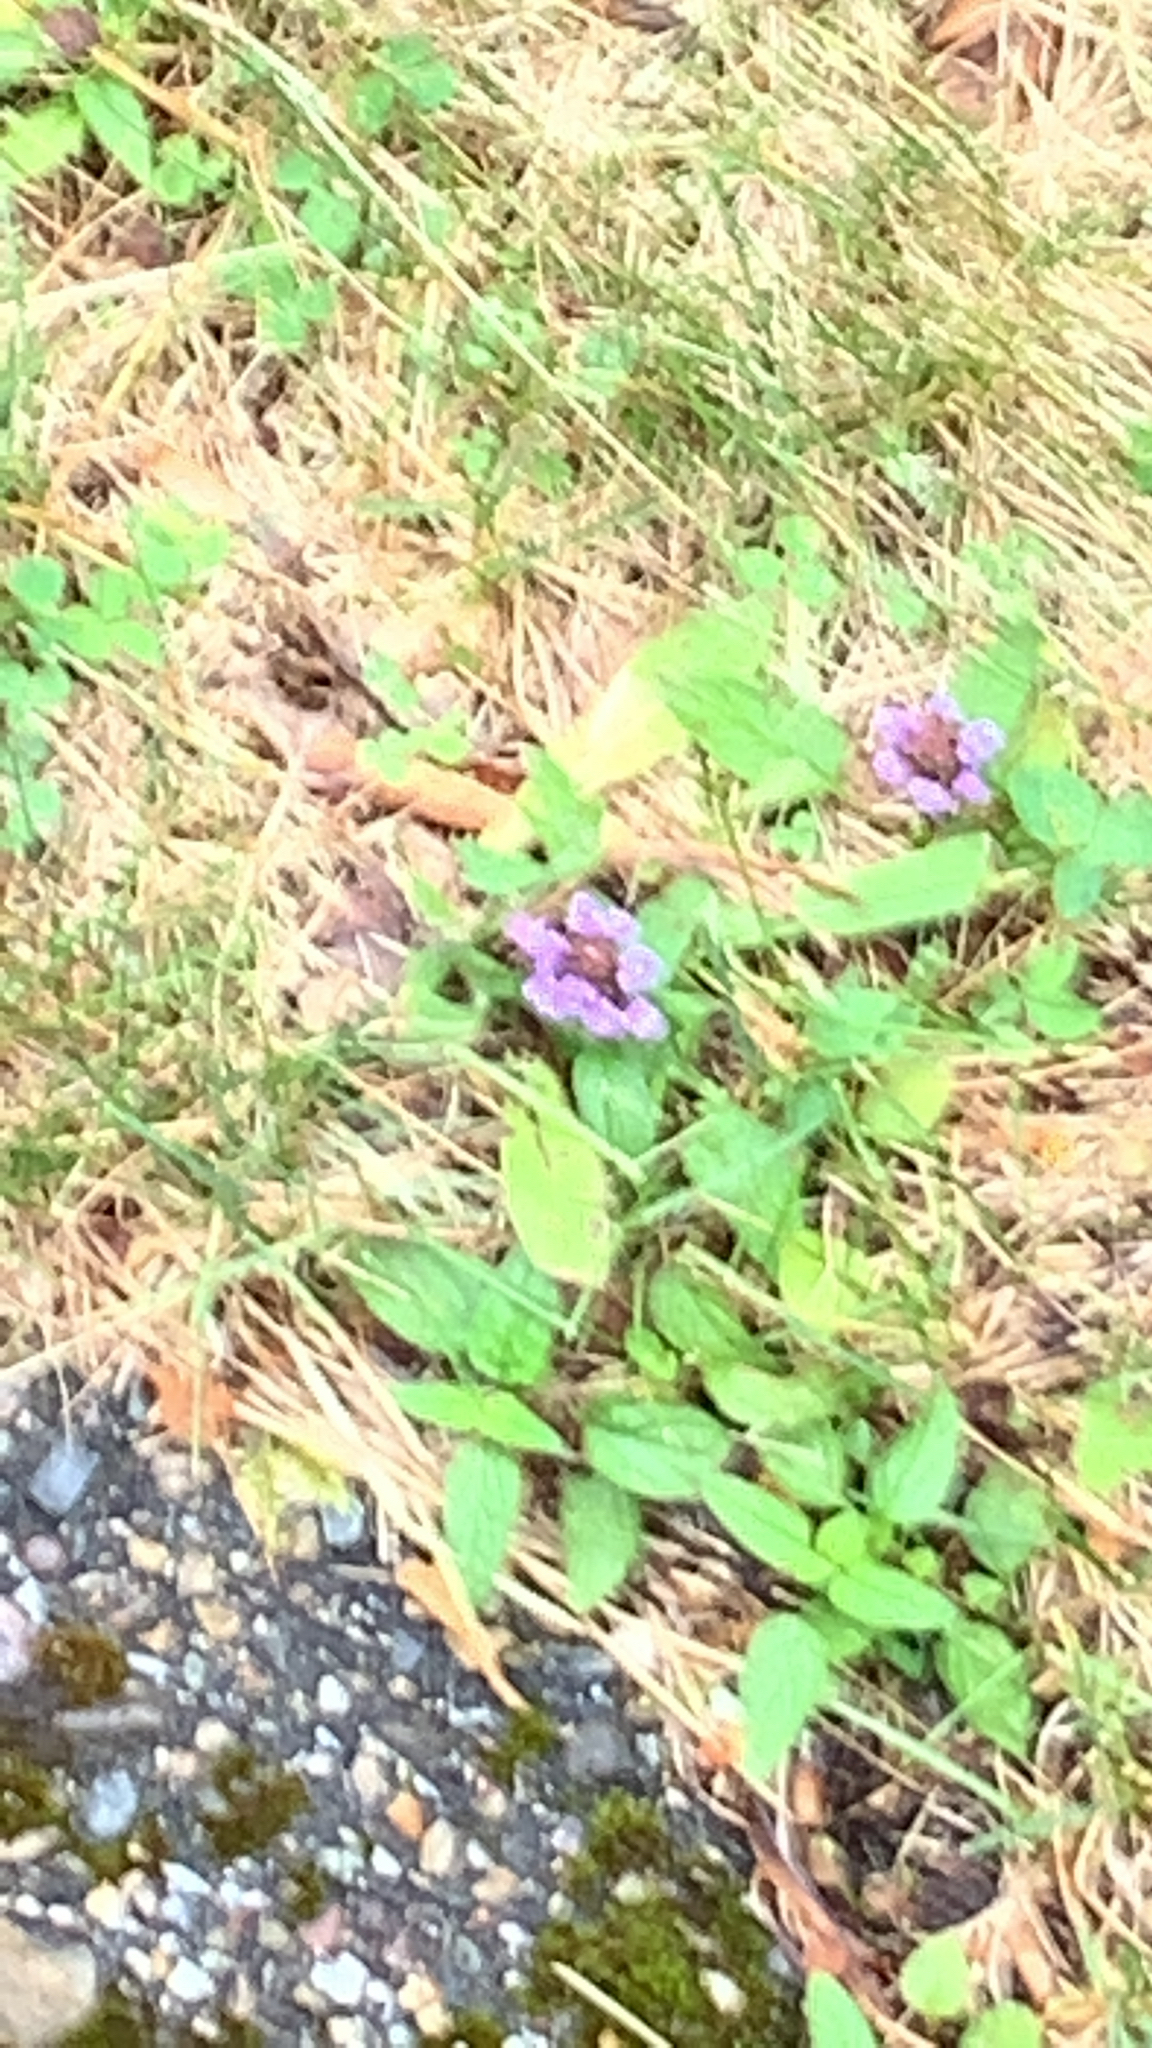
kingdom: Plantae
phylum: Tracheophyta
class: Magnoliopsida
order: Lamiales
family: Lamiaceae
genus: Prunella
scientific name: Prunella vulgaris
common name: Heal-all
